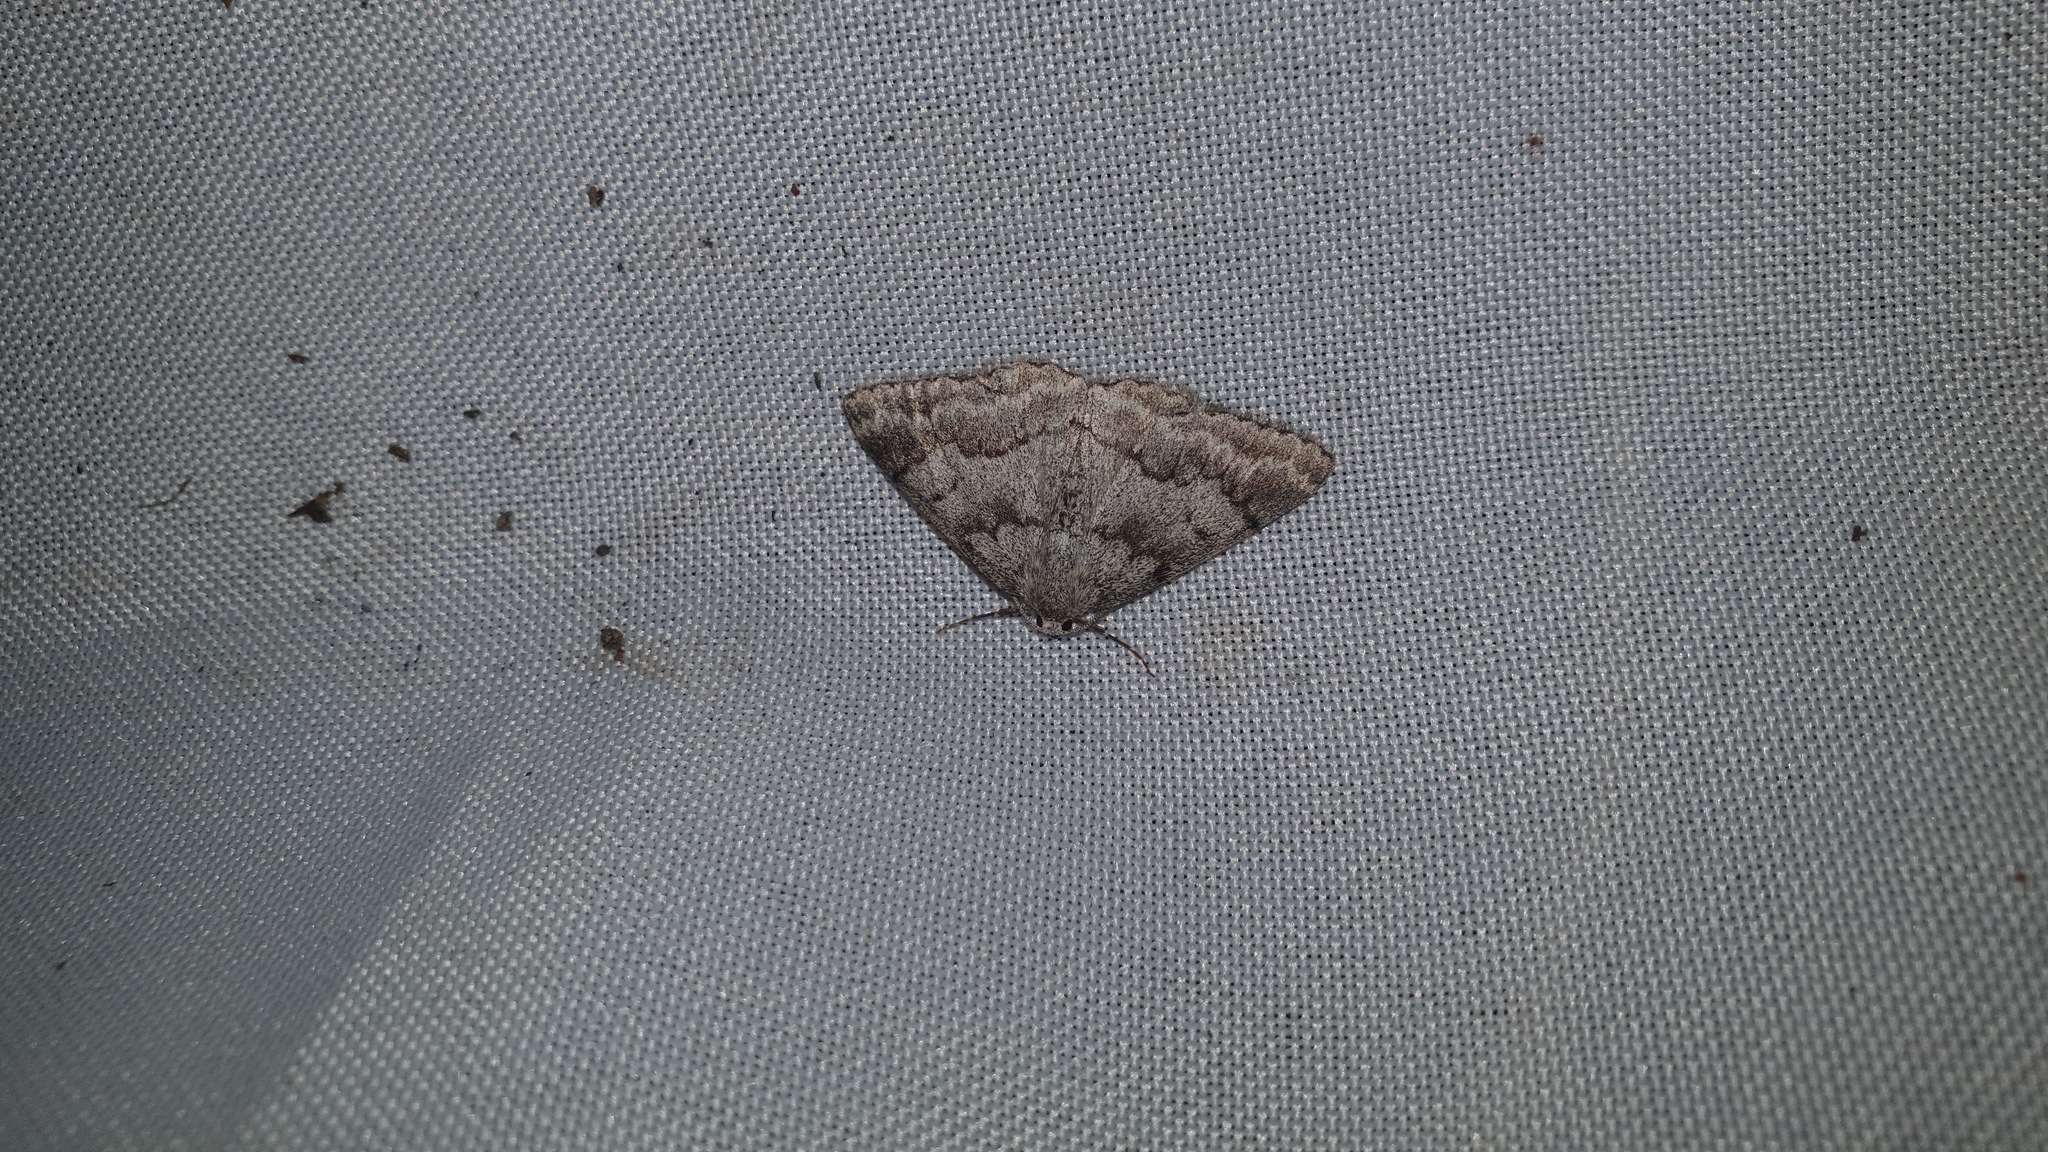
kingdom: Animalia
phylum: Arthropoda
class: Insecta
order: Lepidoptera
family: Geometridae
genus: Pseudoterpna
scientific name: Pseudoterpna coronillaria
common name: Jersey emerald
